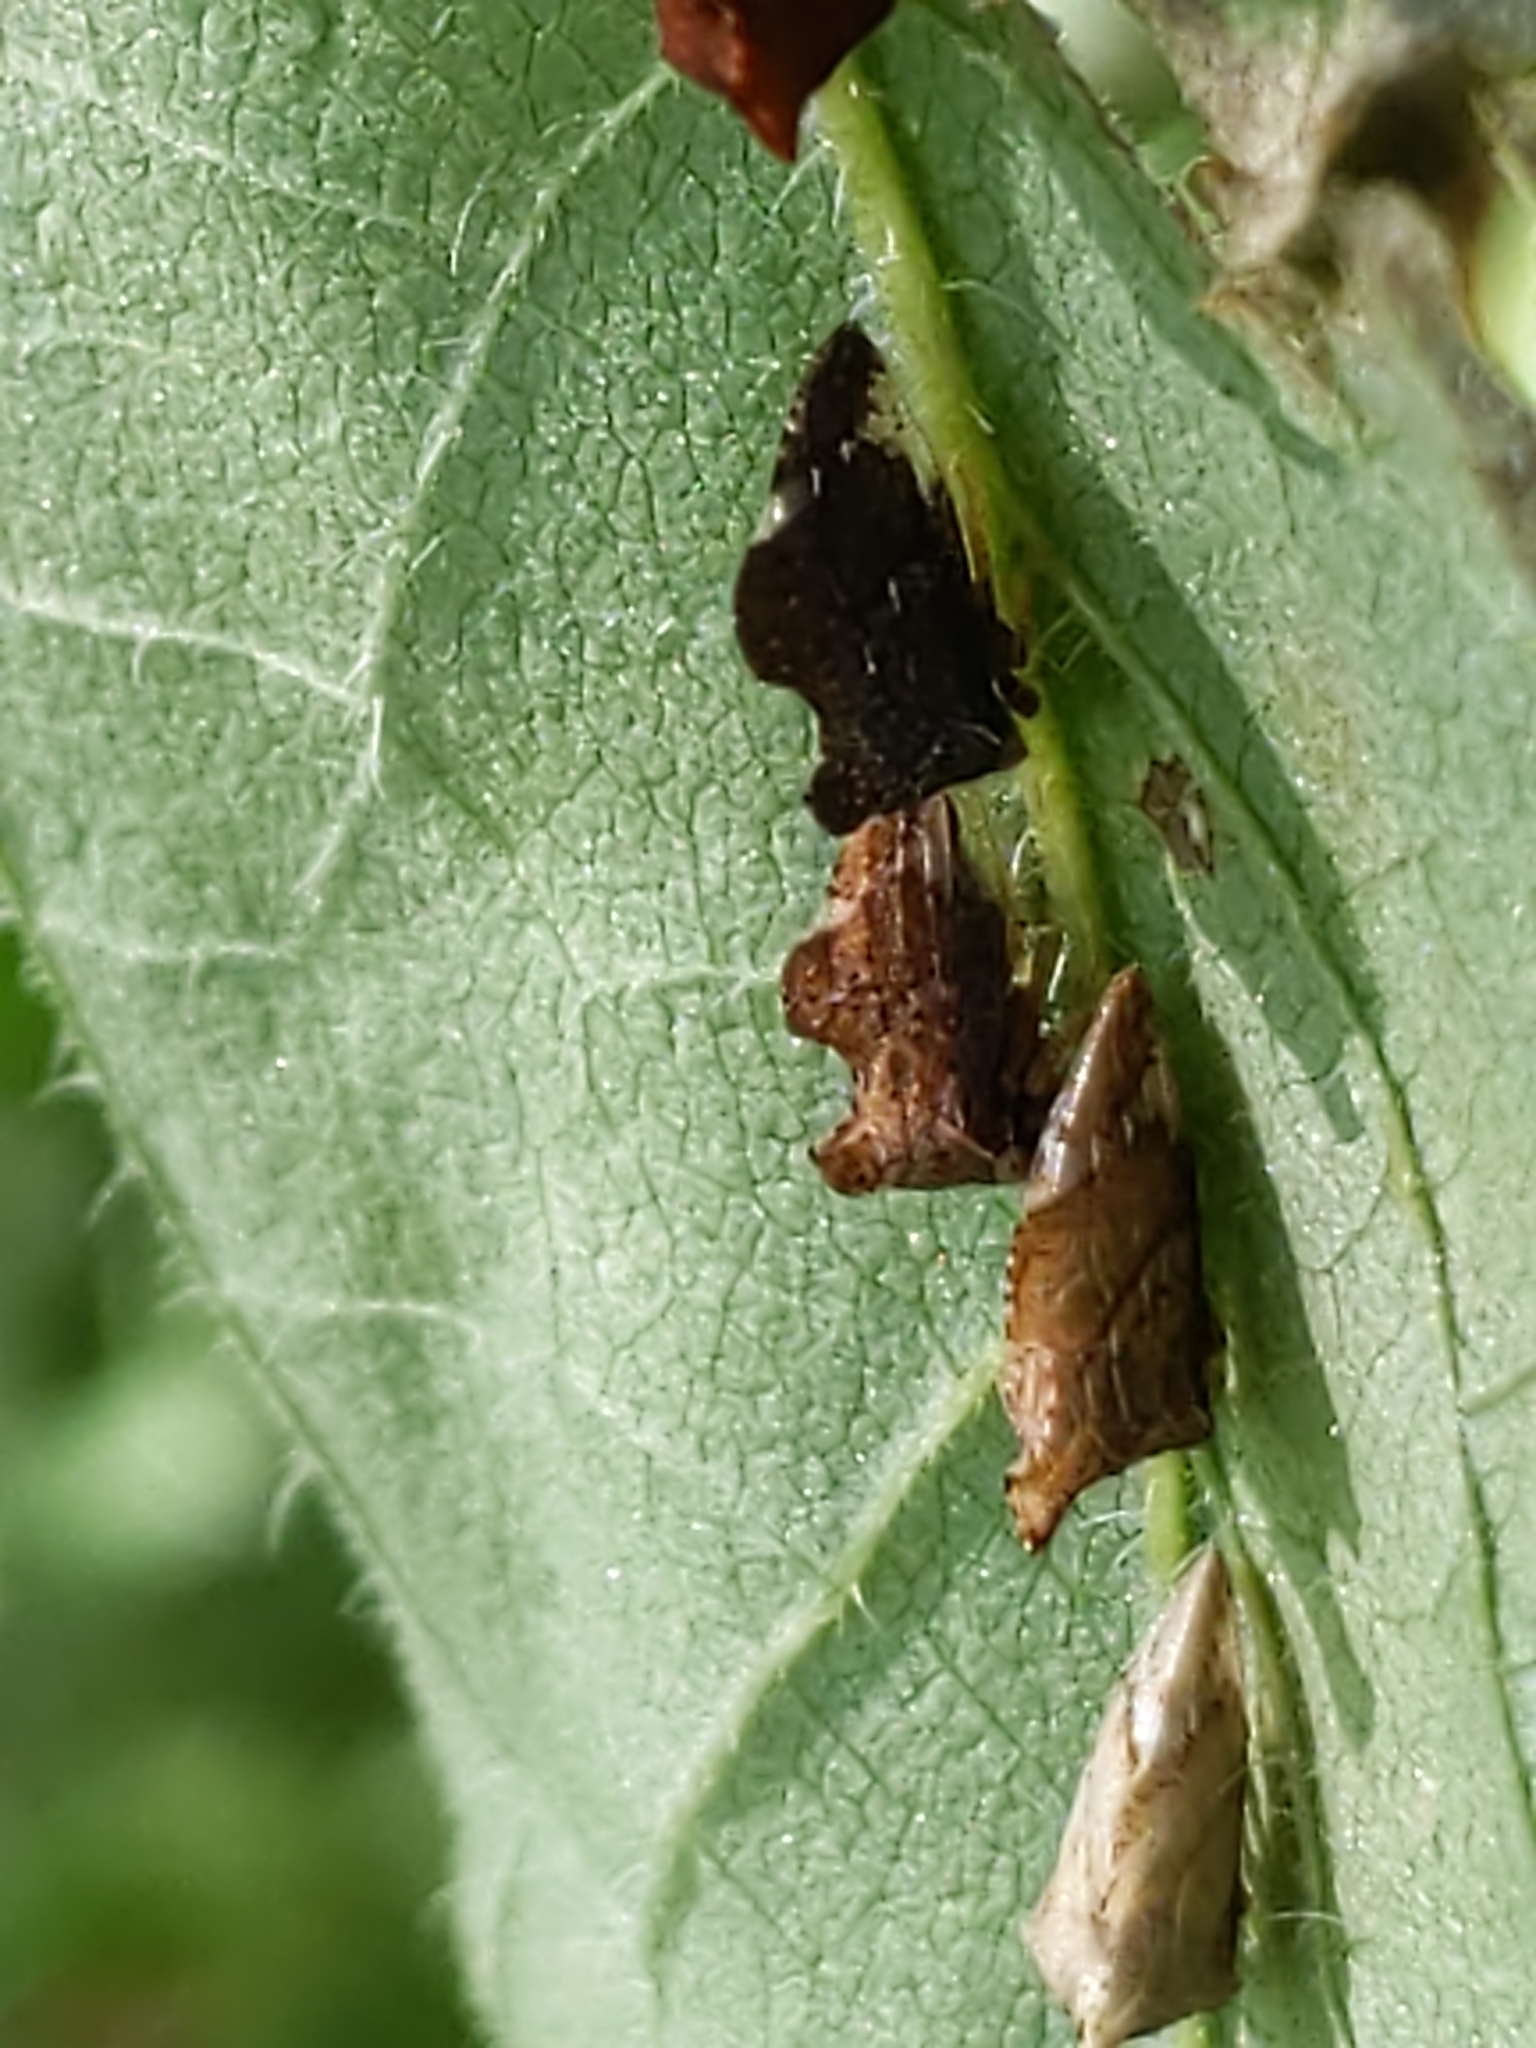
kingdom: Animalia
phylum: Arthropoda
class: Insecta
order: Hemiptera
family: Membracidae
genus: Entylia
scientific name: Entylia carinata
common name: Keeled treehopper
